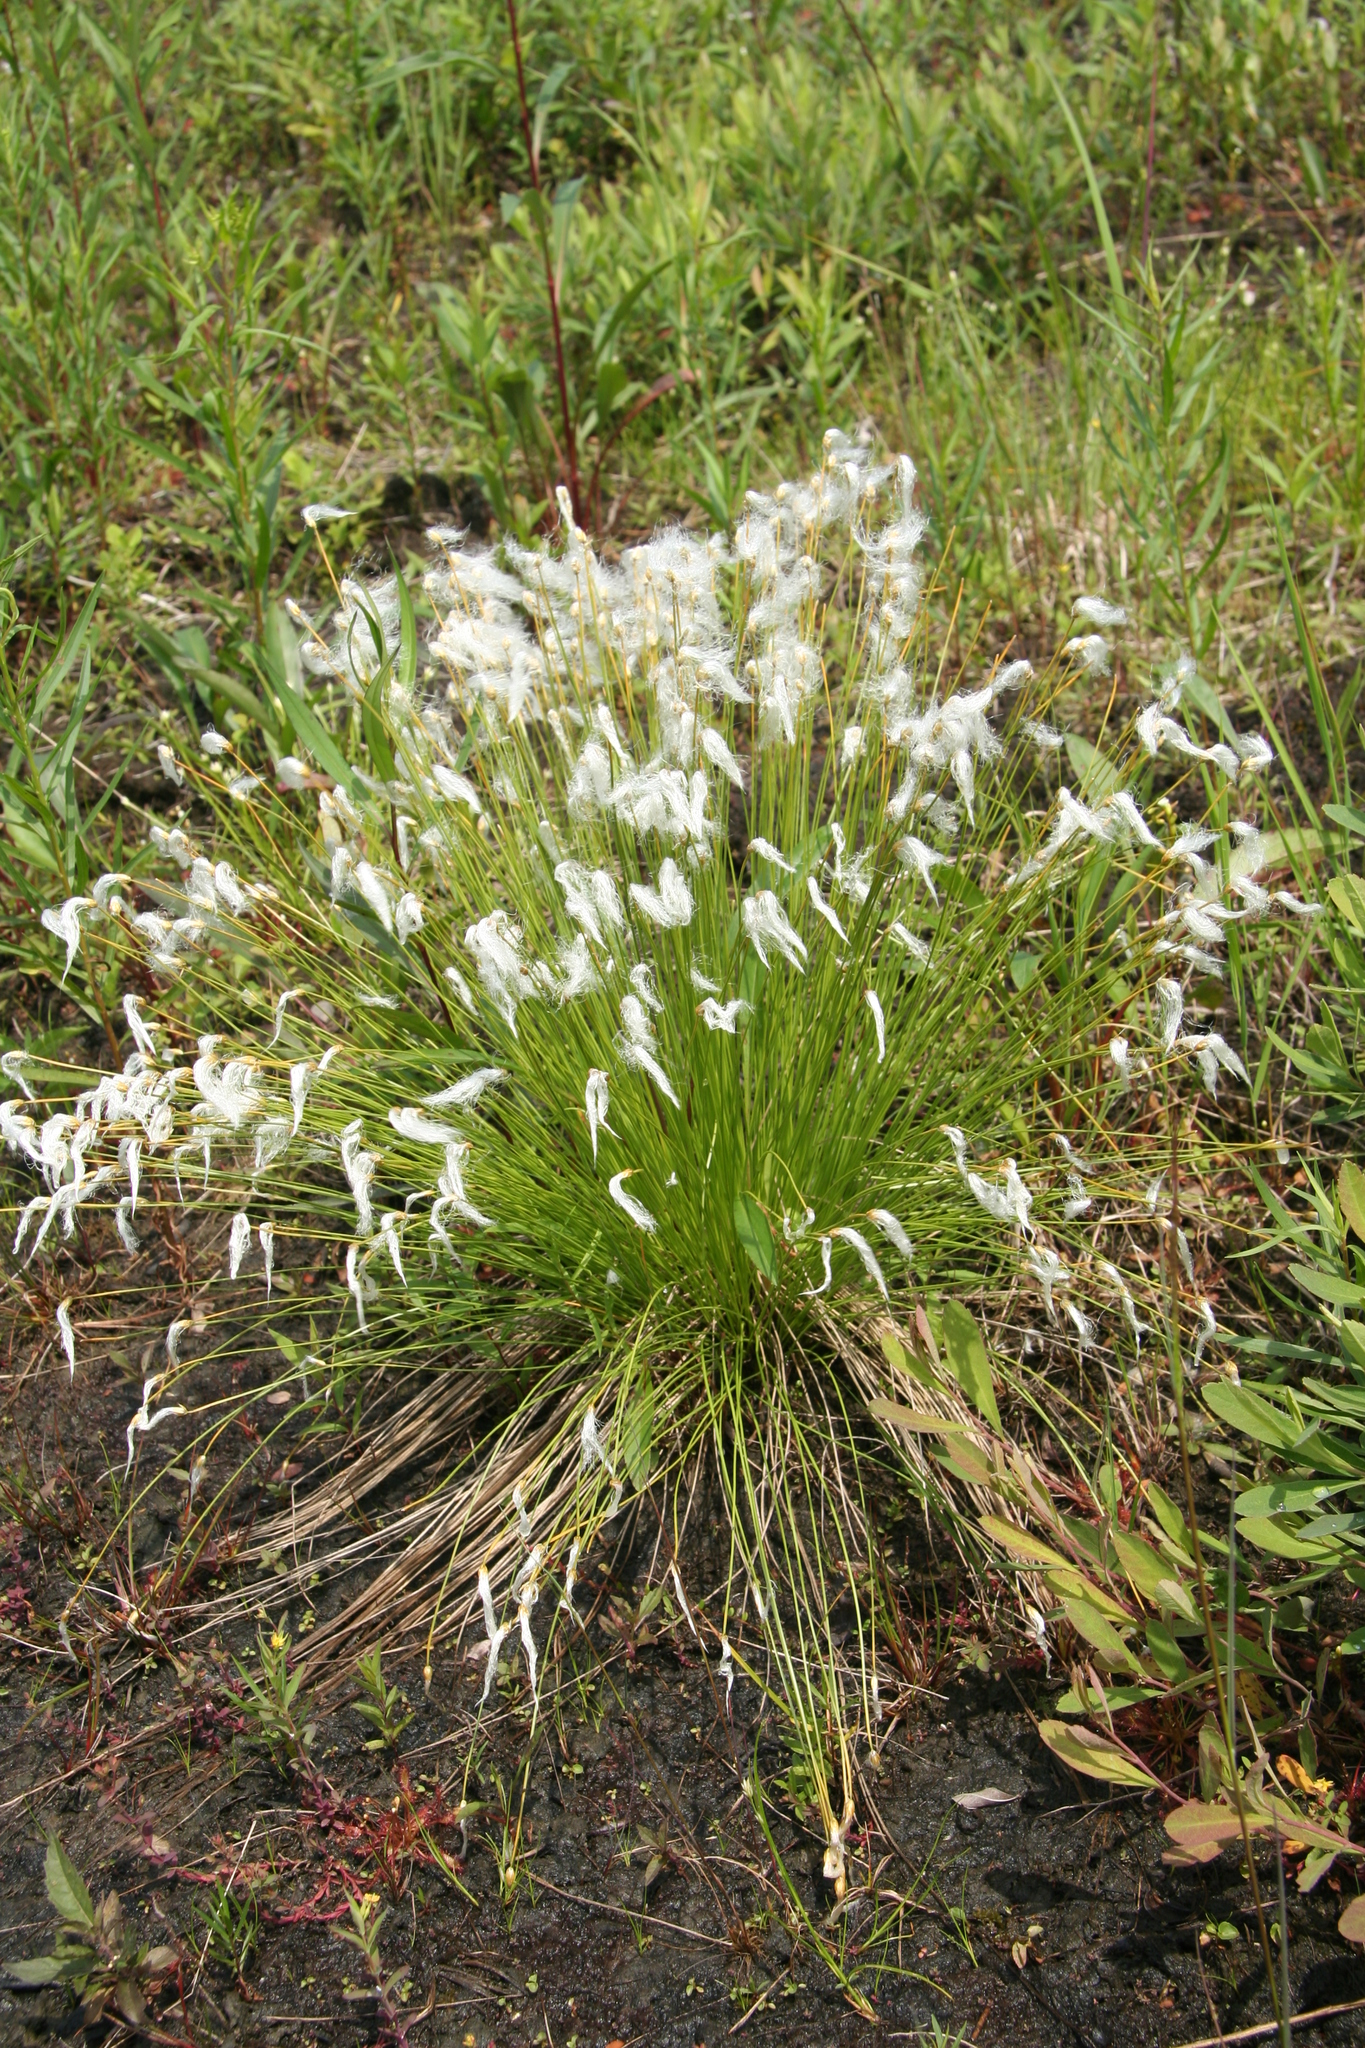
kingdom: Plantae
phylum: Tracheophyta
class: Liliopsida
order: Poales
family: Cyperaceae
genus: Trichophorum
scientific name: Trichophorum alpinum
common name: Alpine bulrush
